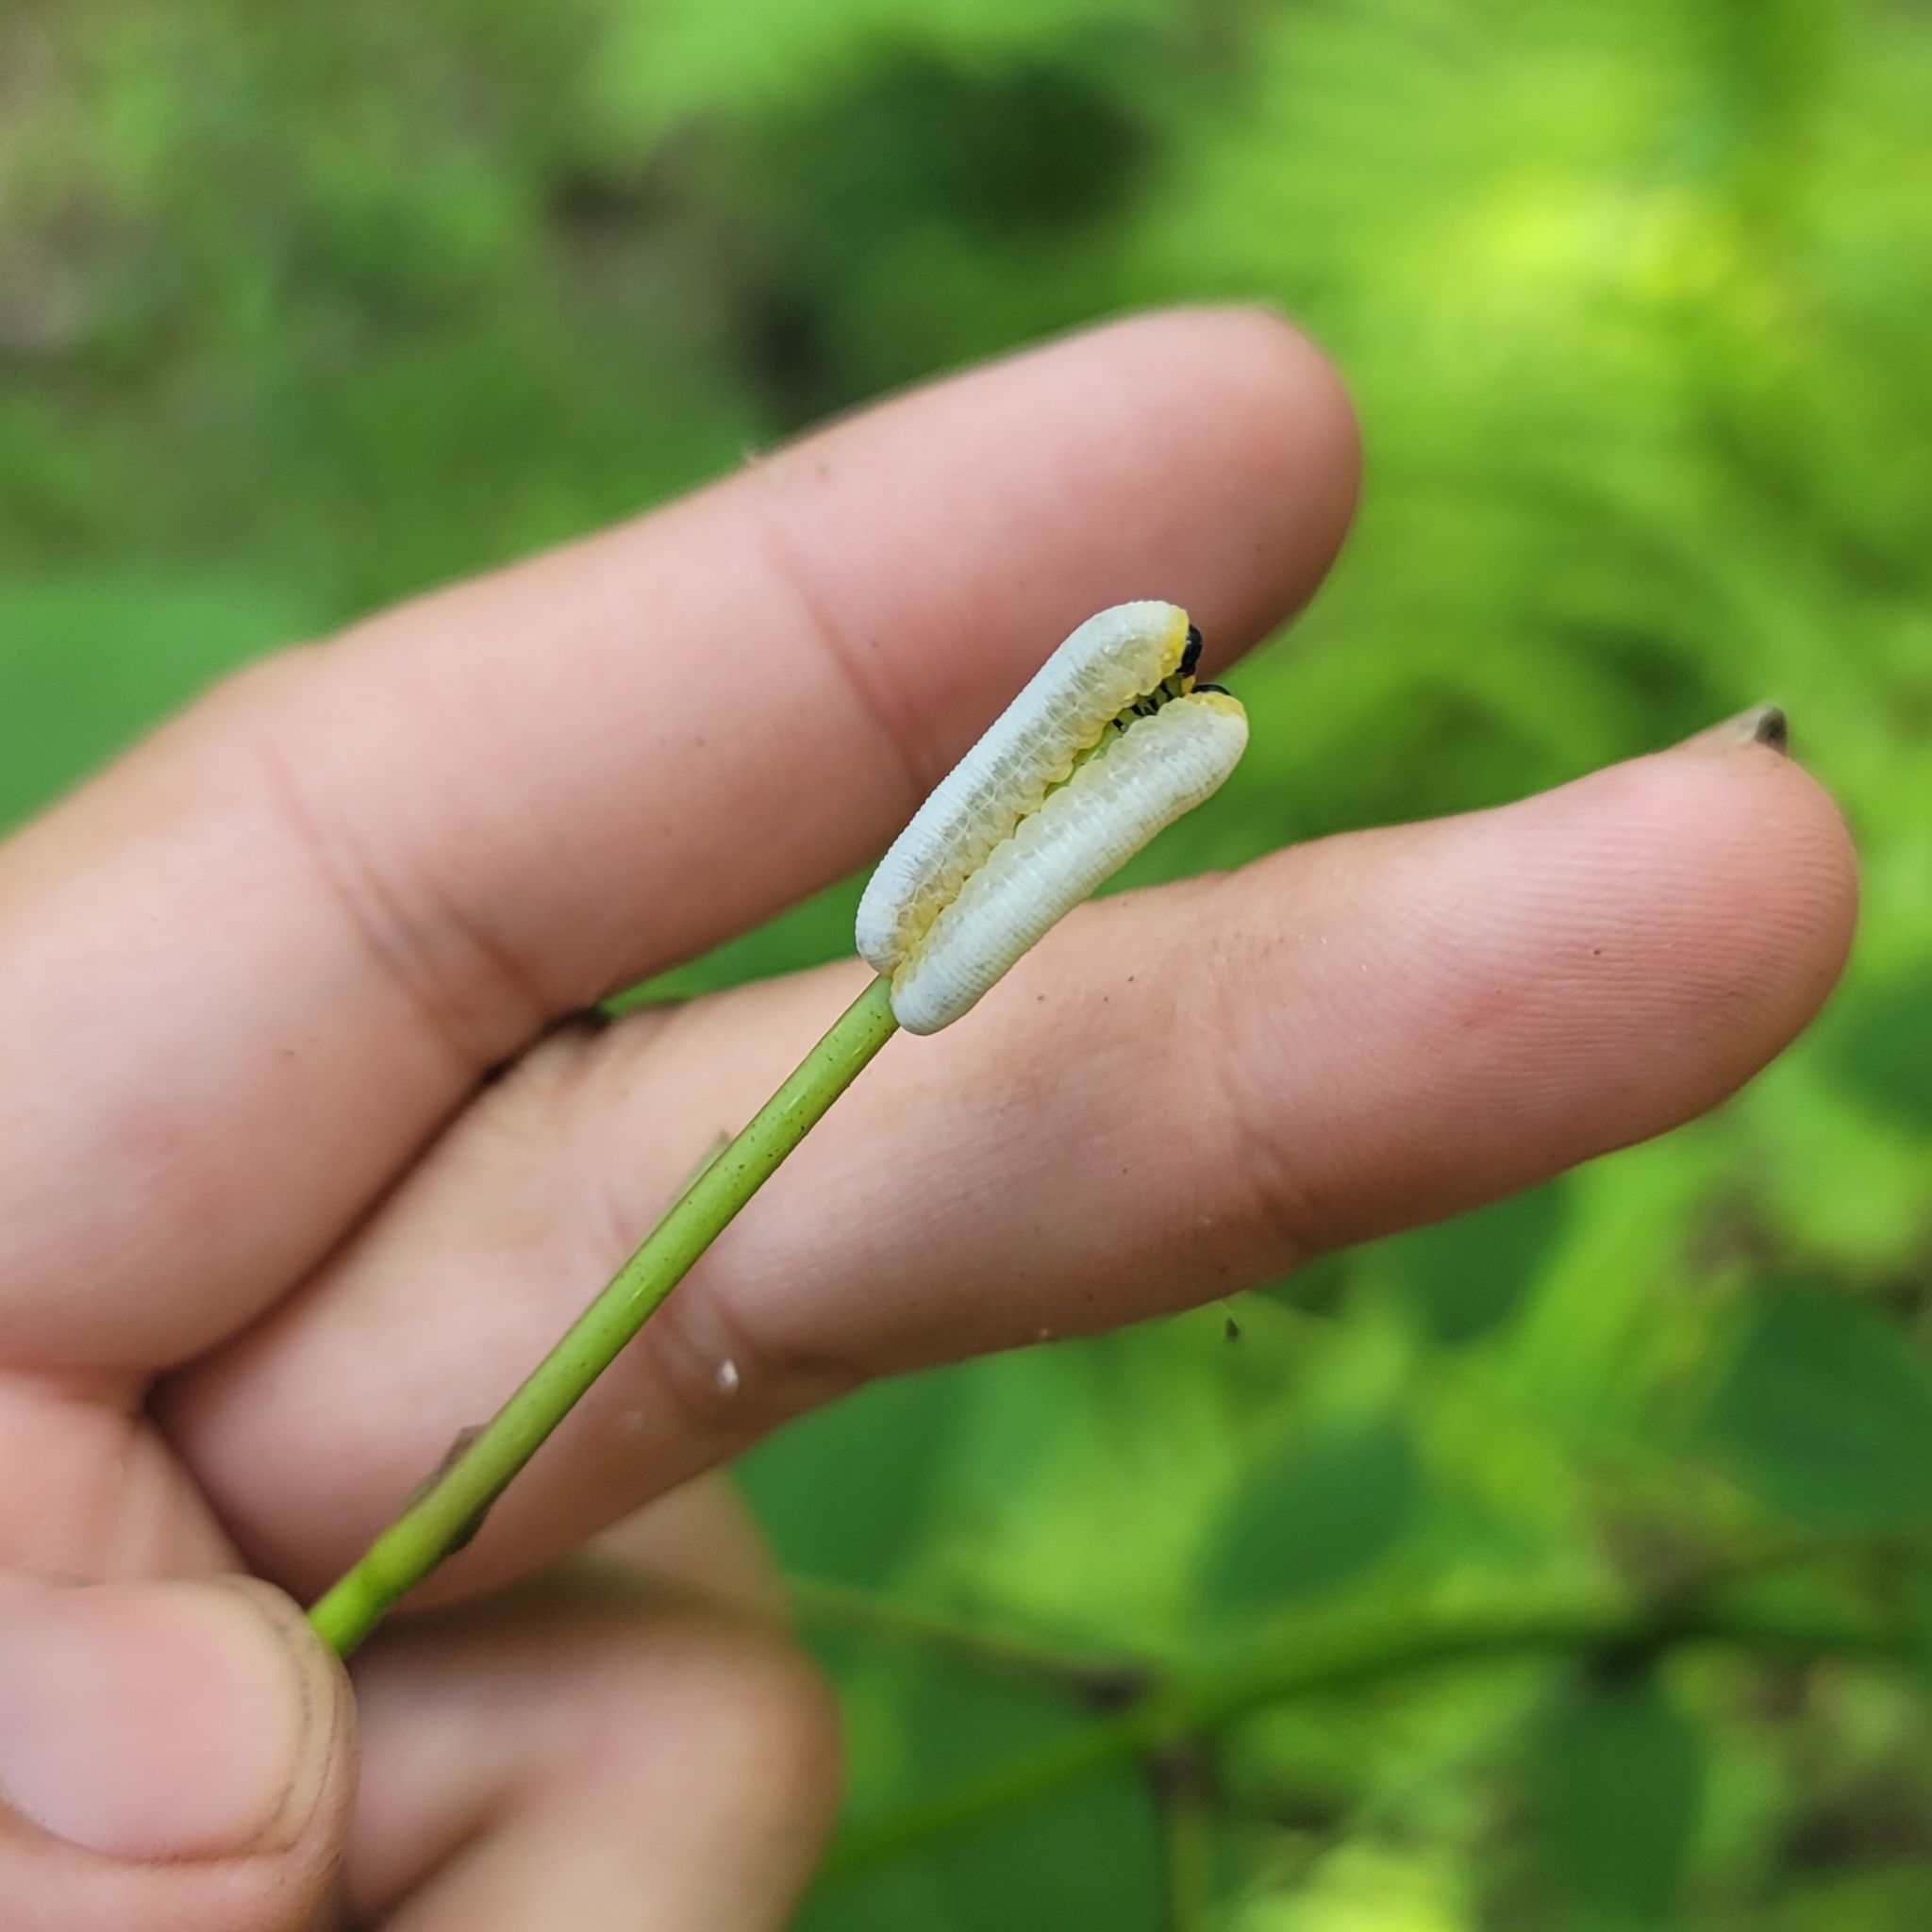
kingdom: Animalia
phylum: Arthropoda
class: Insecta
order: Hymenoptera
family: Tenthredinidae
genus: Tethida
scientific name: Tethida barda
